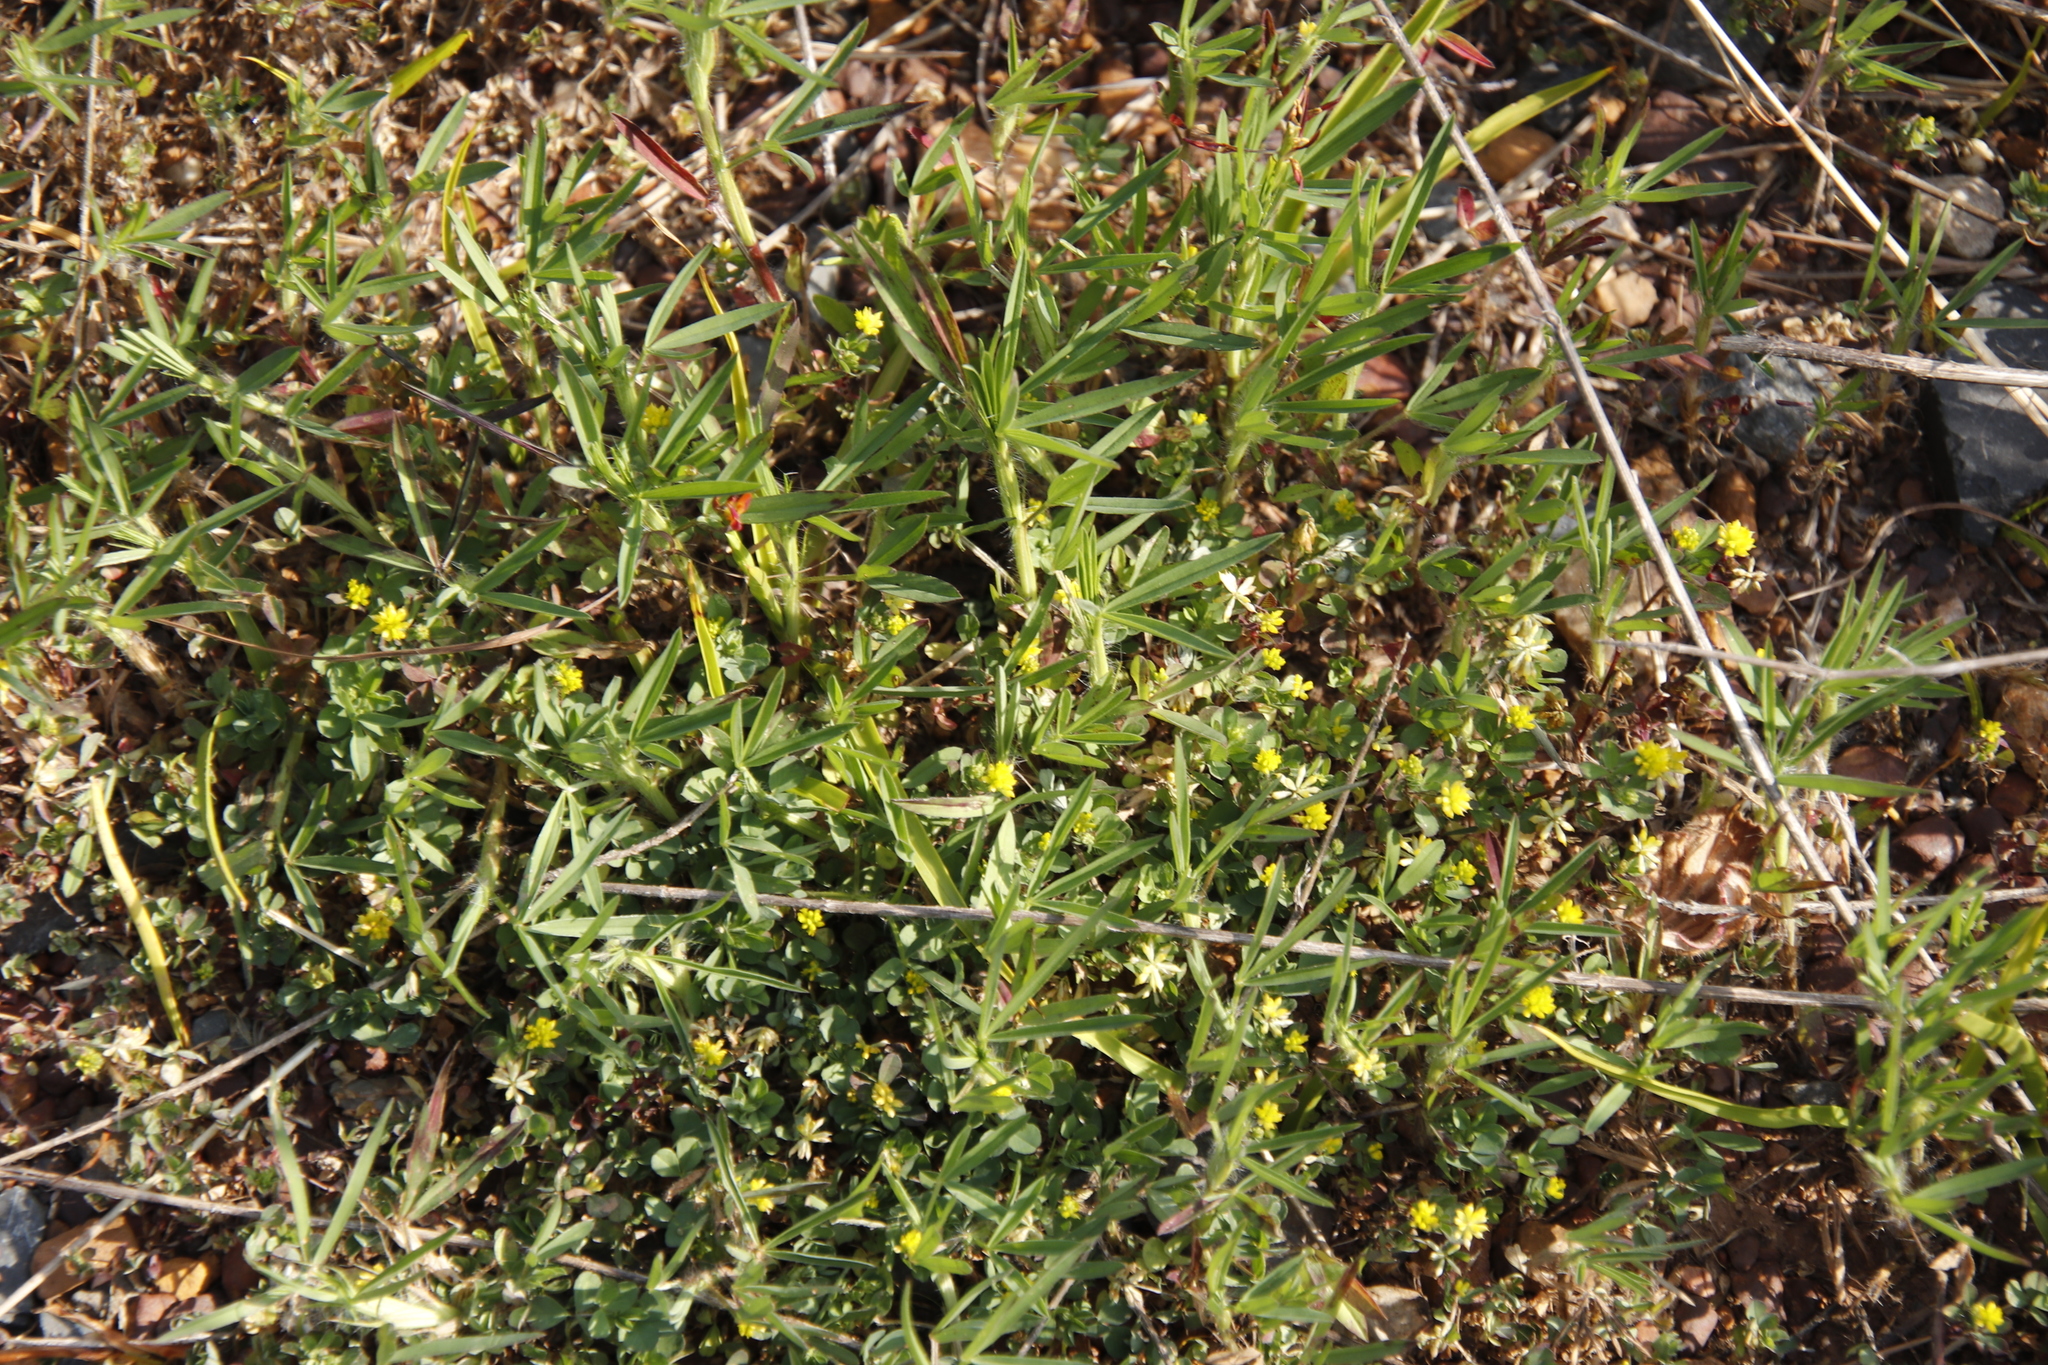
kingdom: Plantae
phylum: Tracheophyta
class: Magnoliopsida
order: Fabales
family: Fabaceae
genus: Trifolium
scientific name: Trifolium dubium
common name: Suckling clover
